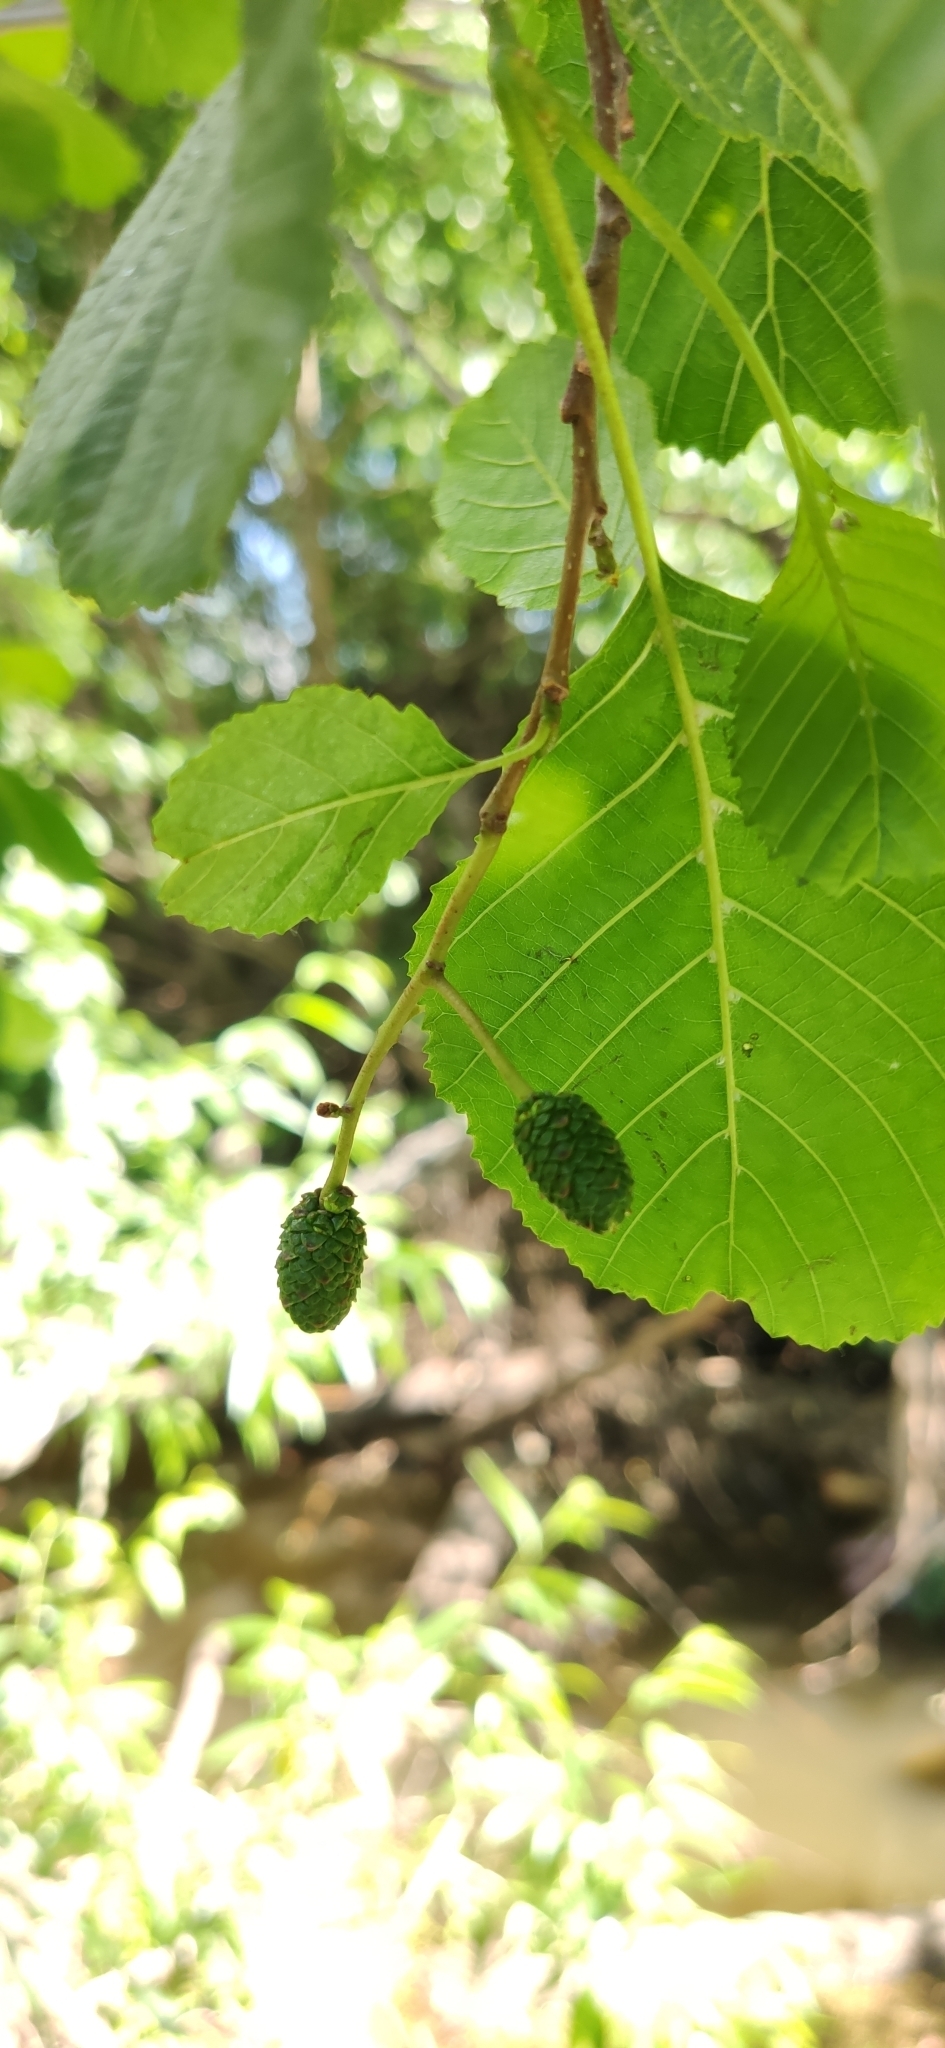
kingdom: Plantae
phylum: Tracheophyta
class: Magnoliopsida
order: Fagales
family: Betulaceae
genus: Alnus
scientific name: Alnus glutinosa
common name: Black alder
